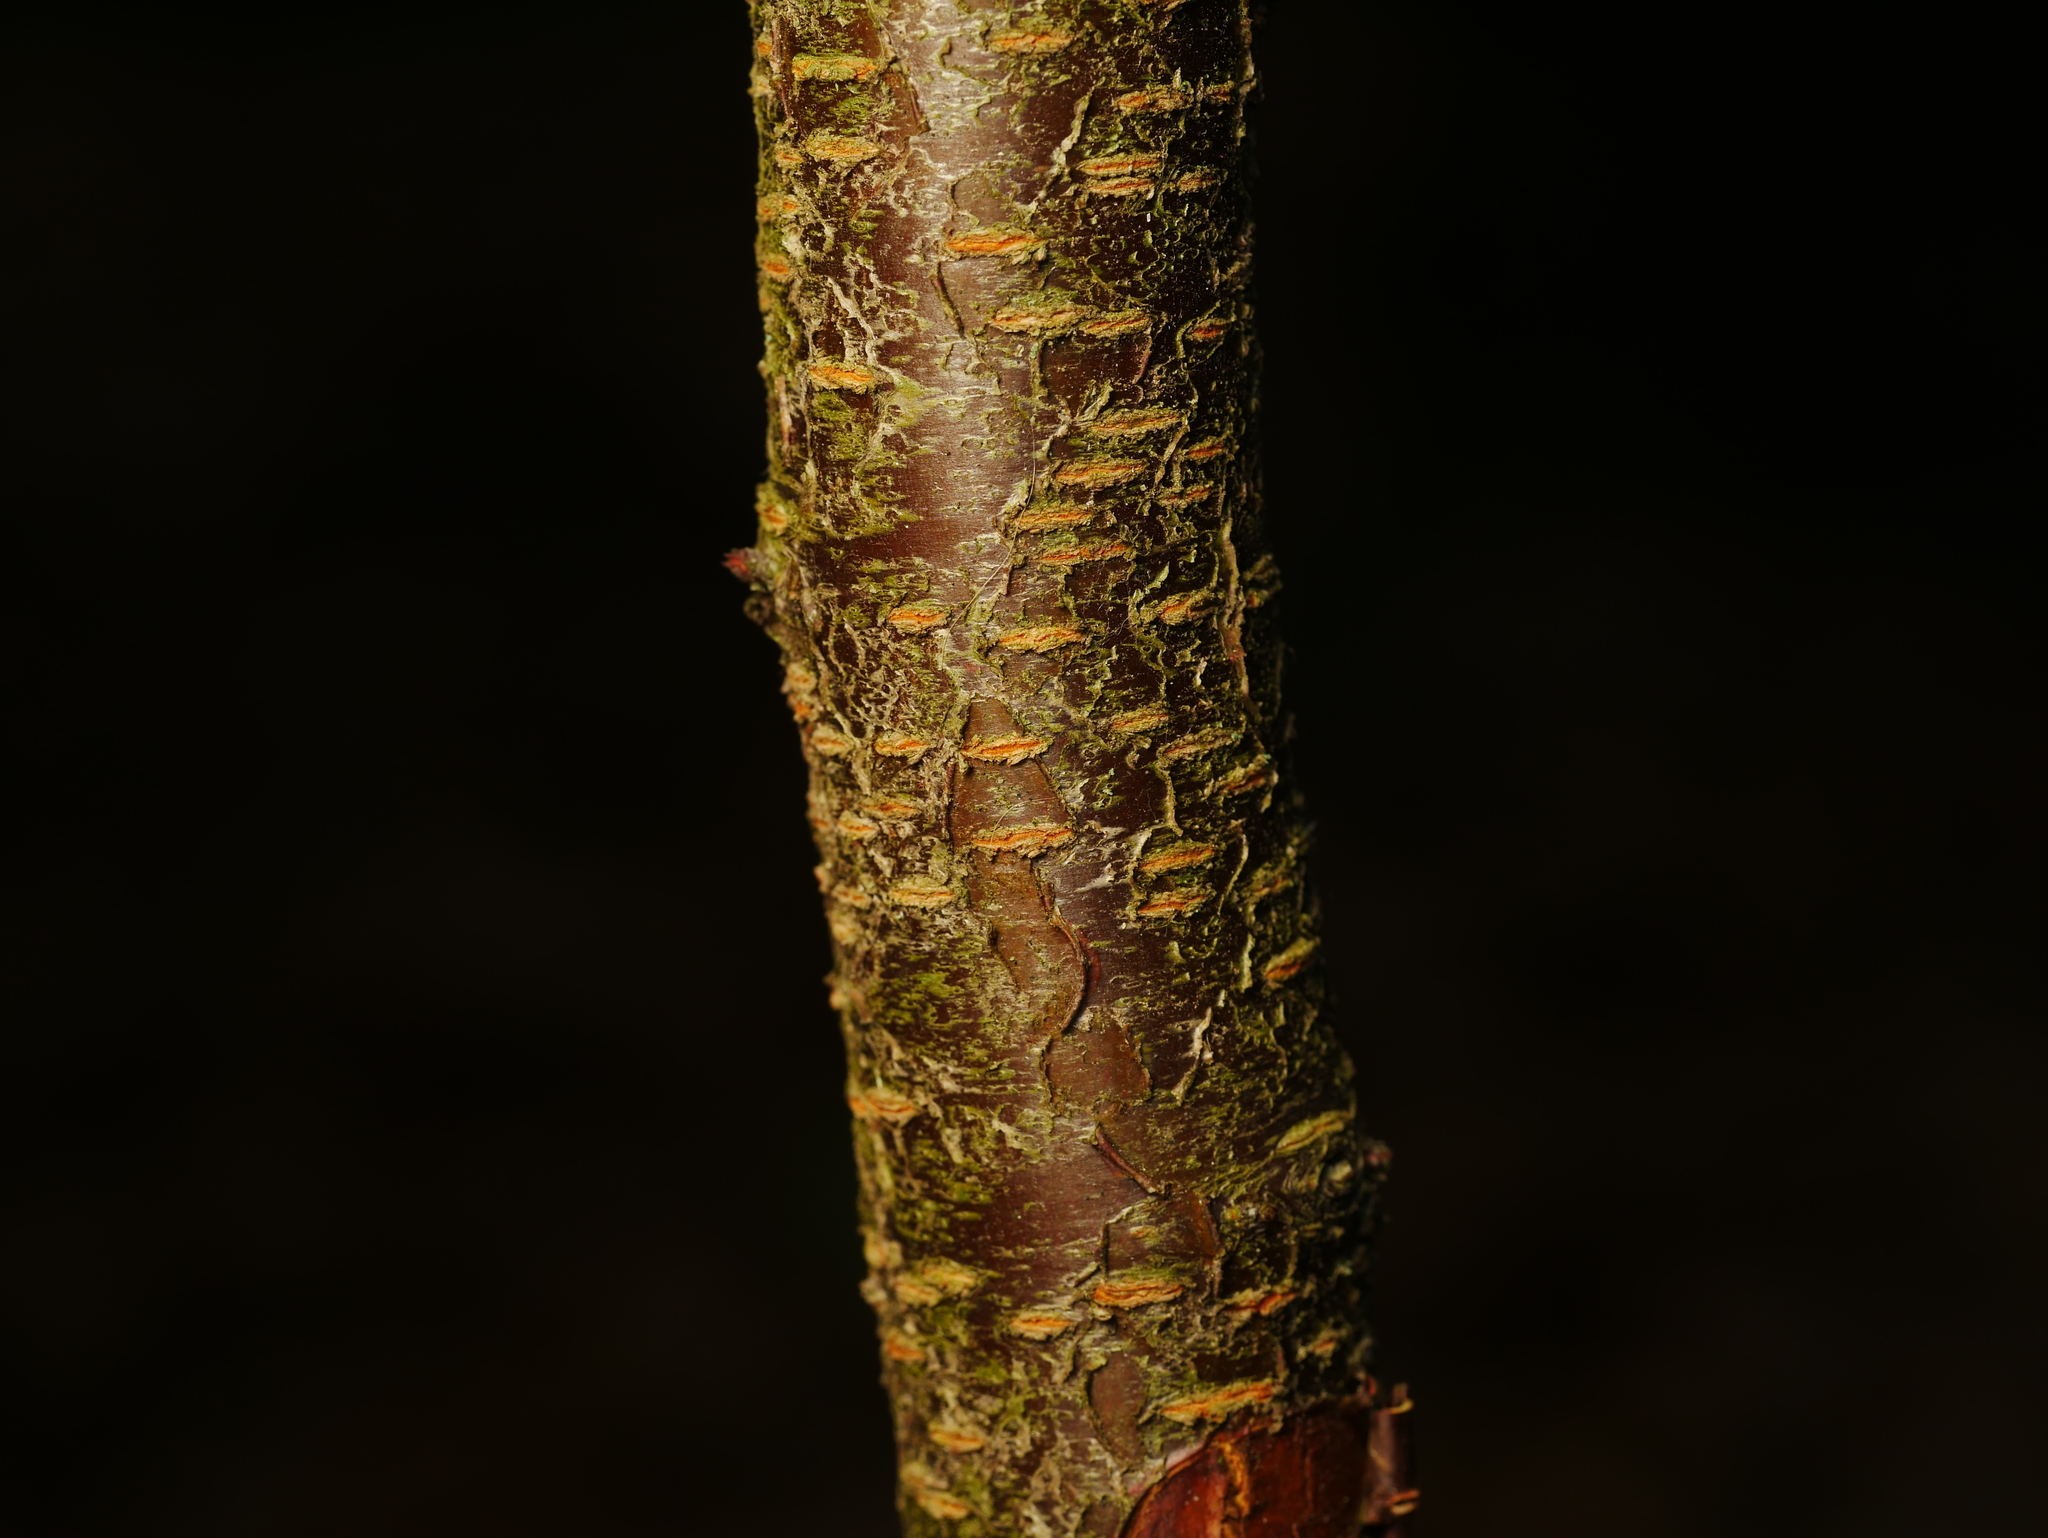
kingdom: Plantae
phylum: Tracheophyta
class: Magnoliopsida
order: Rosales
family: Rosaceae
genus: Prunus
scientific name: Prunus serotina
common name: Black cherry
